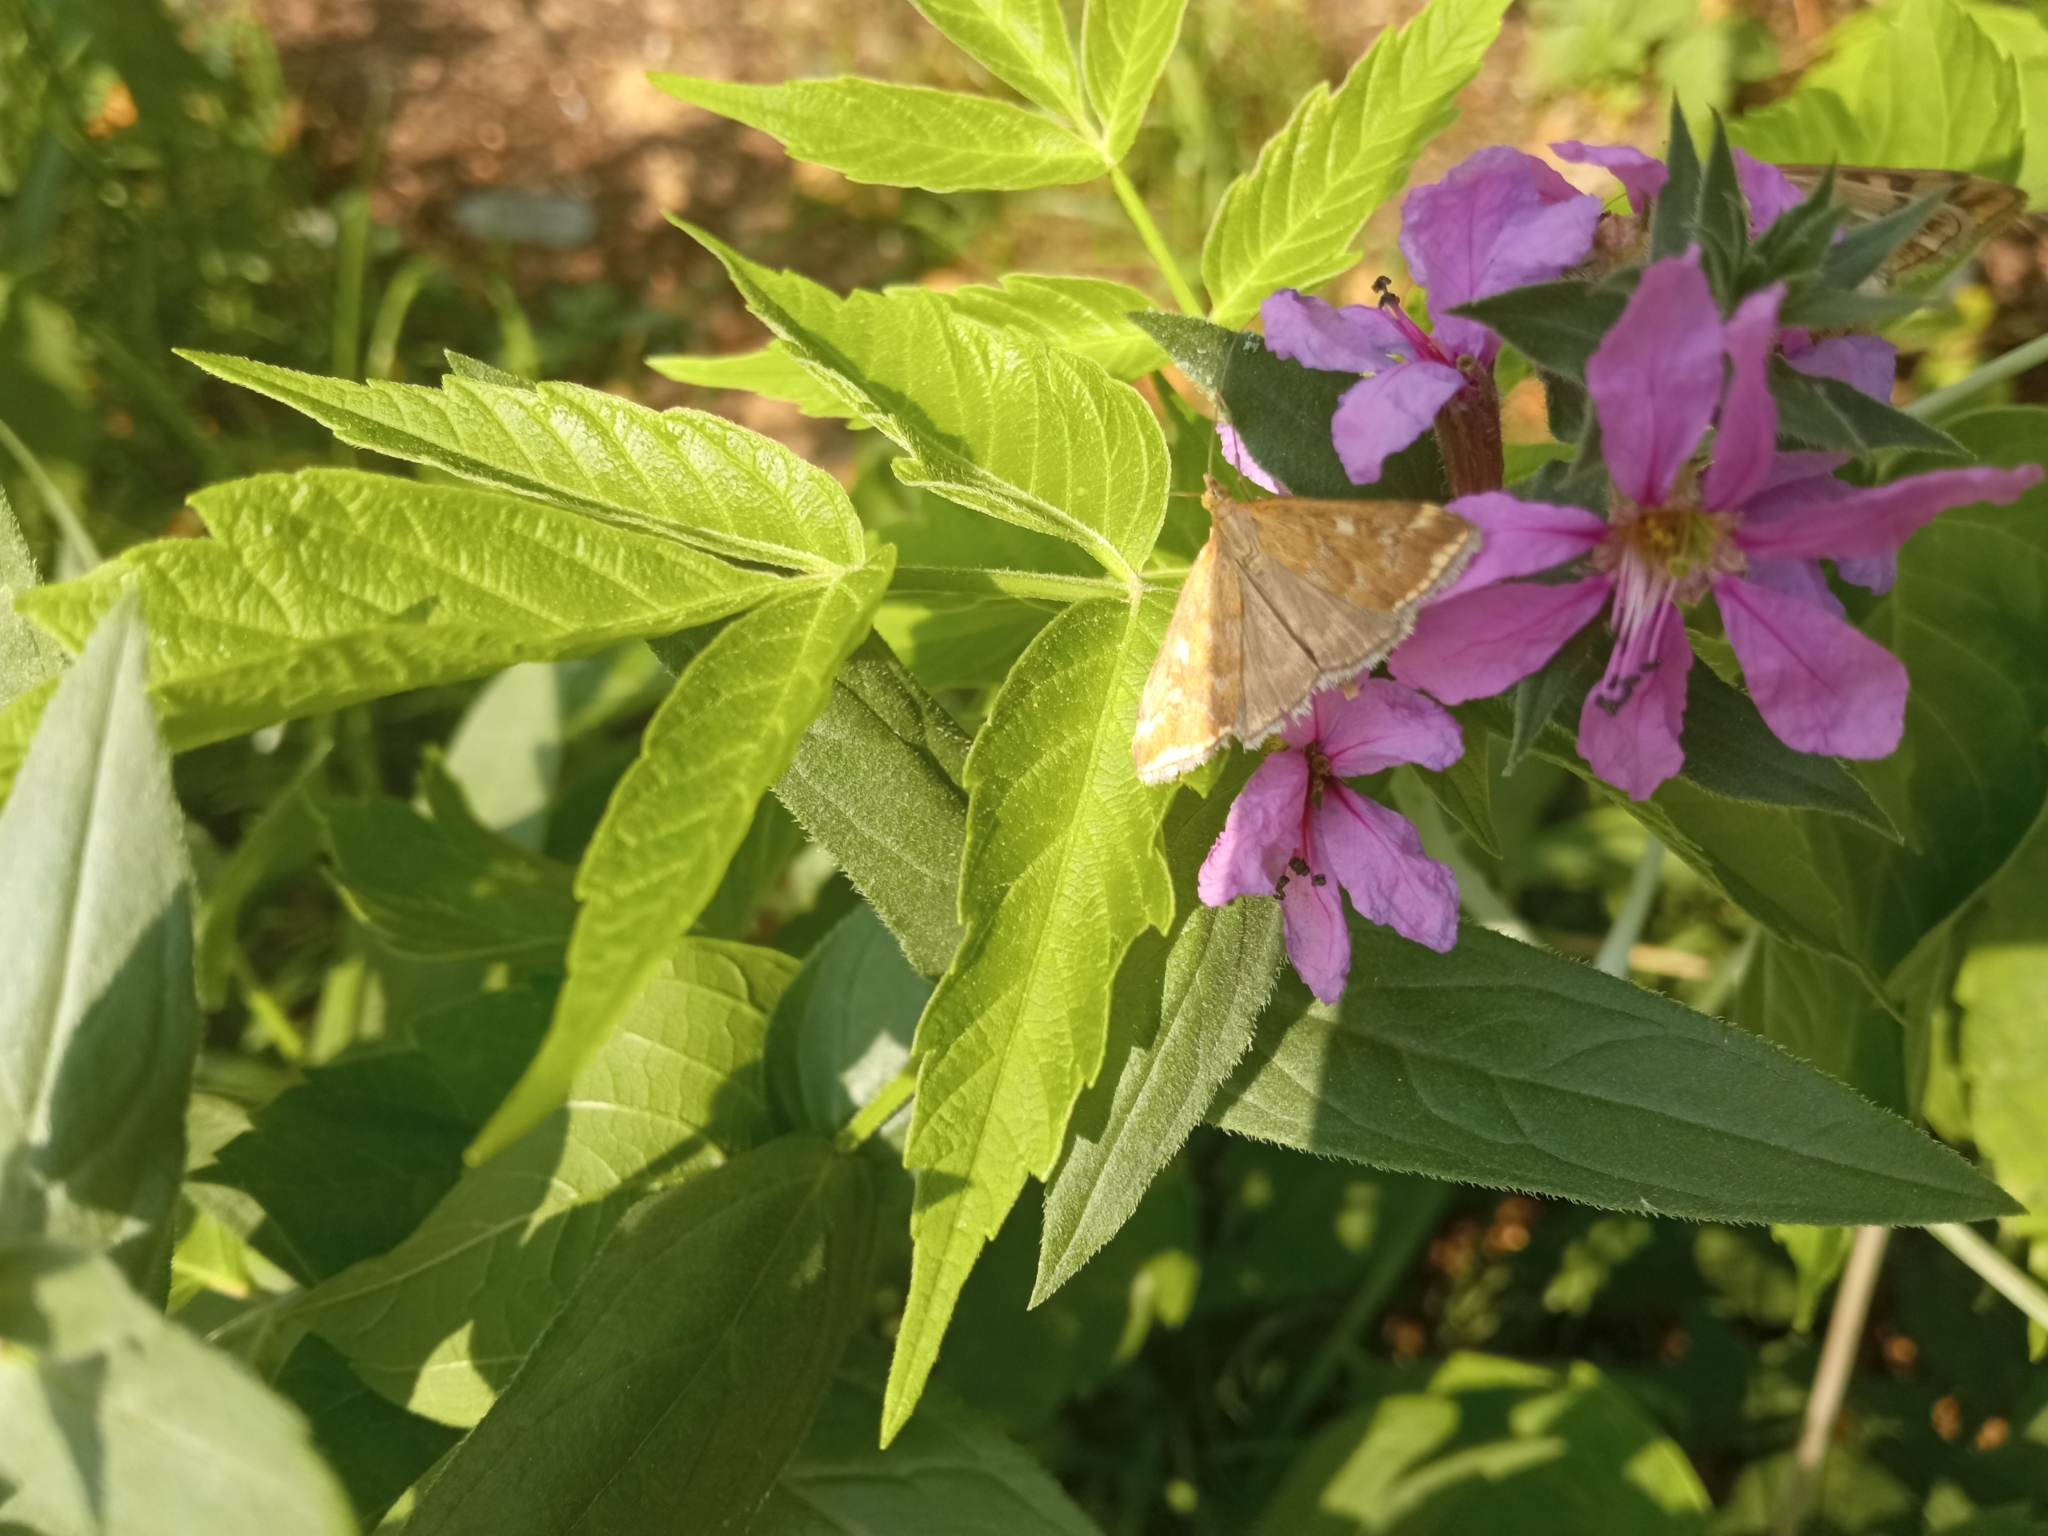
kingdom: Animalia
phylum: Arthropoda
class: Insecta
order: Lepidoptera
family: Crambidae
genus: Loxostege
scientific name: Loxostege sticticalis
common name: Crambid moth
